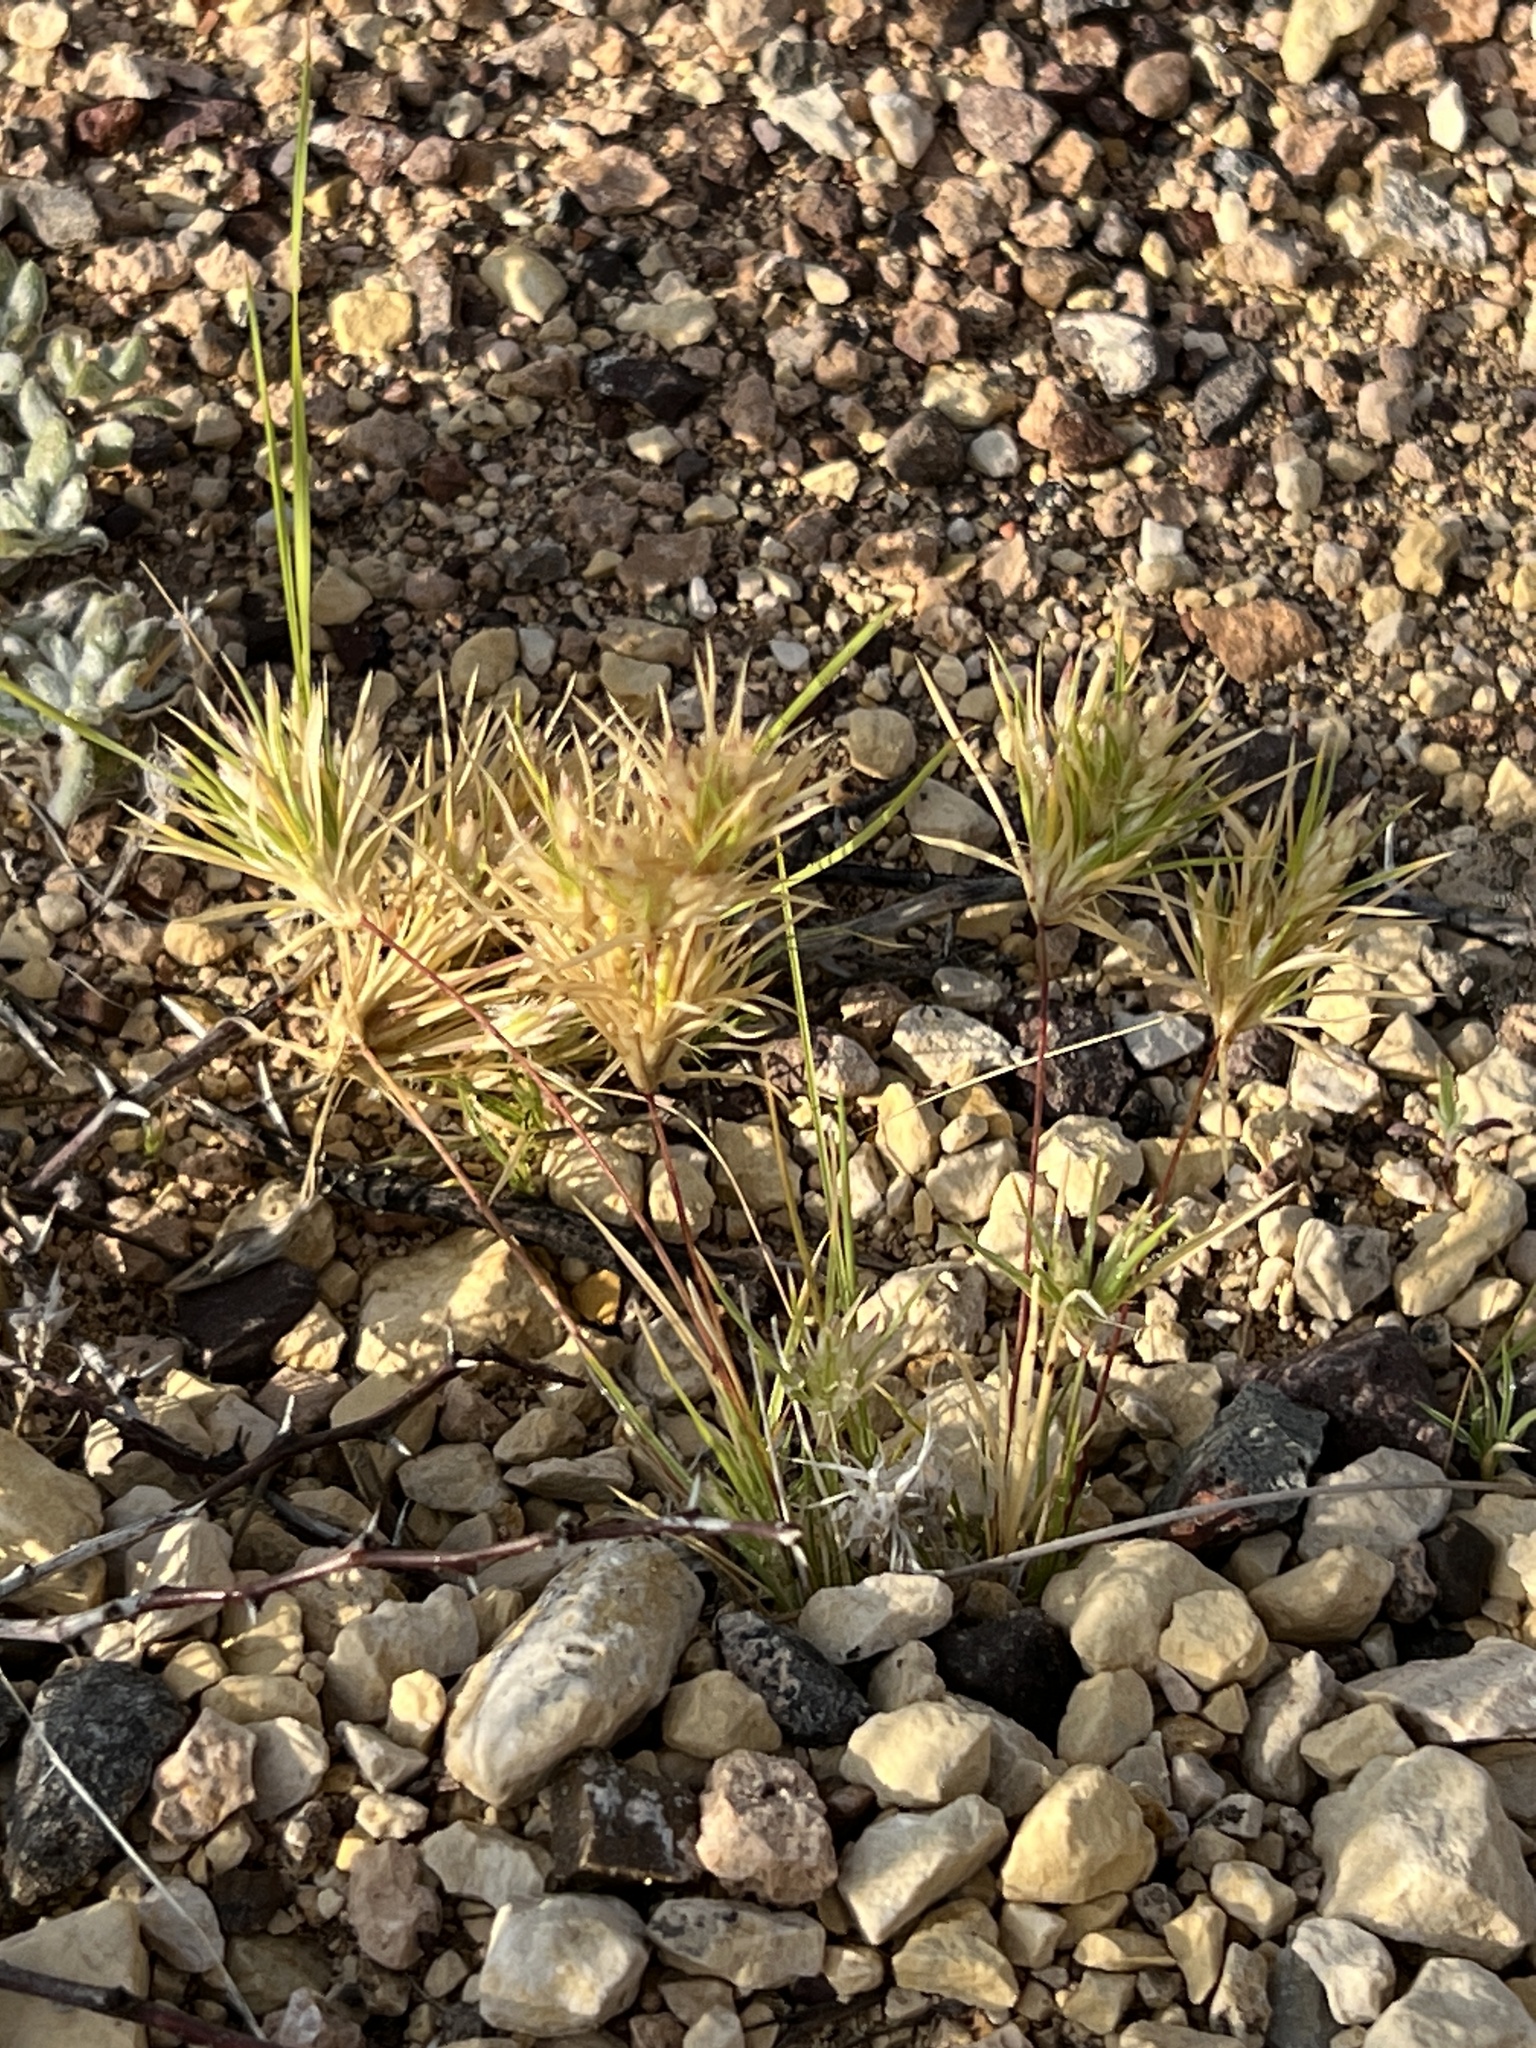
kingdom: Plantae
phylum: Tracheophyta
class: Liliopsida
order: Poales
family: Poaceae
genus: Dasyochloa
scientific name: Dasyochloa pulchella
